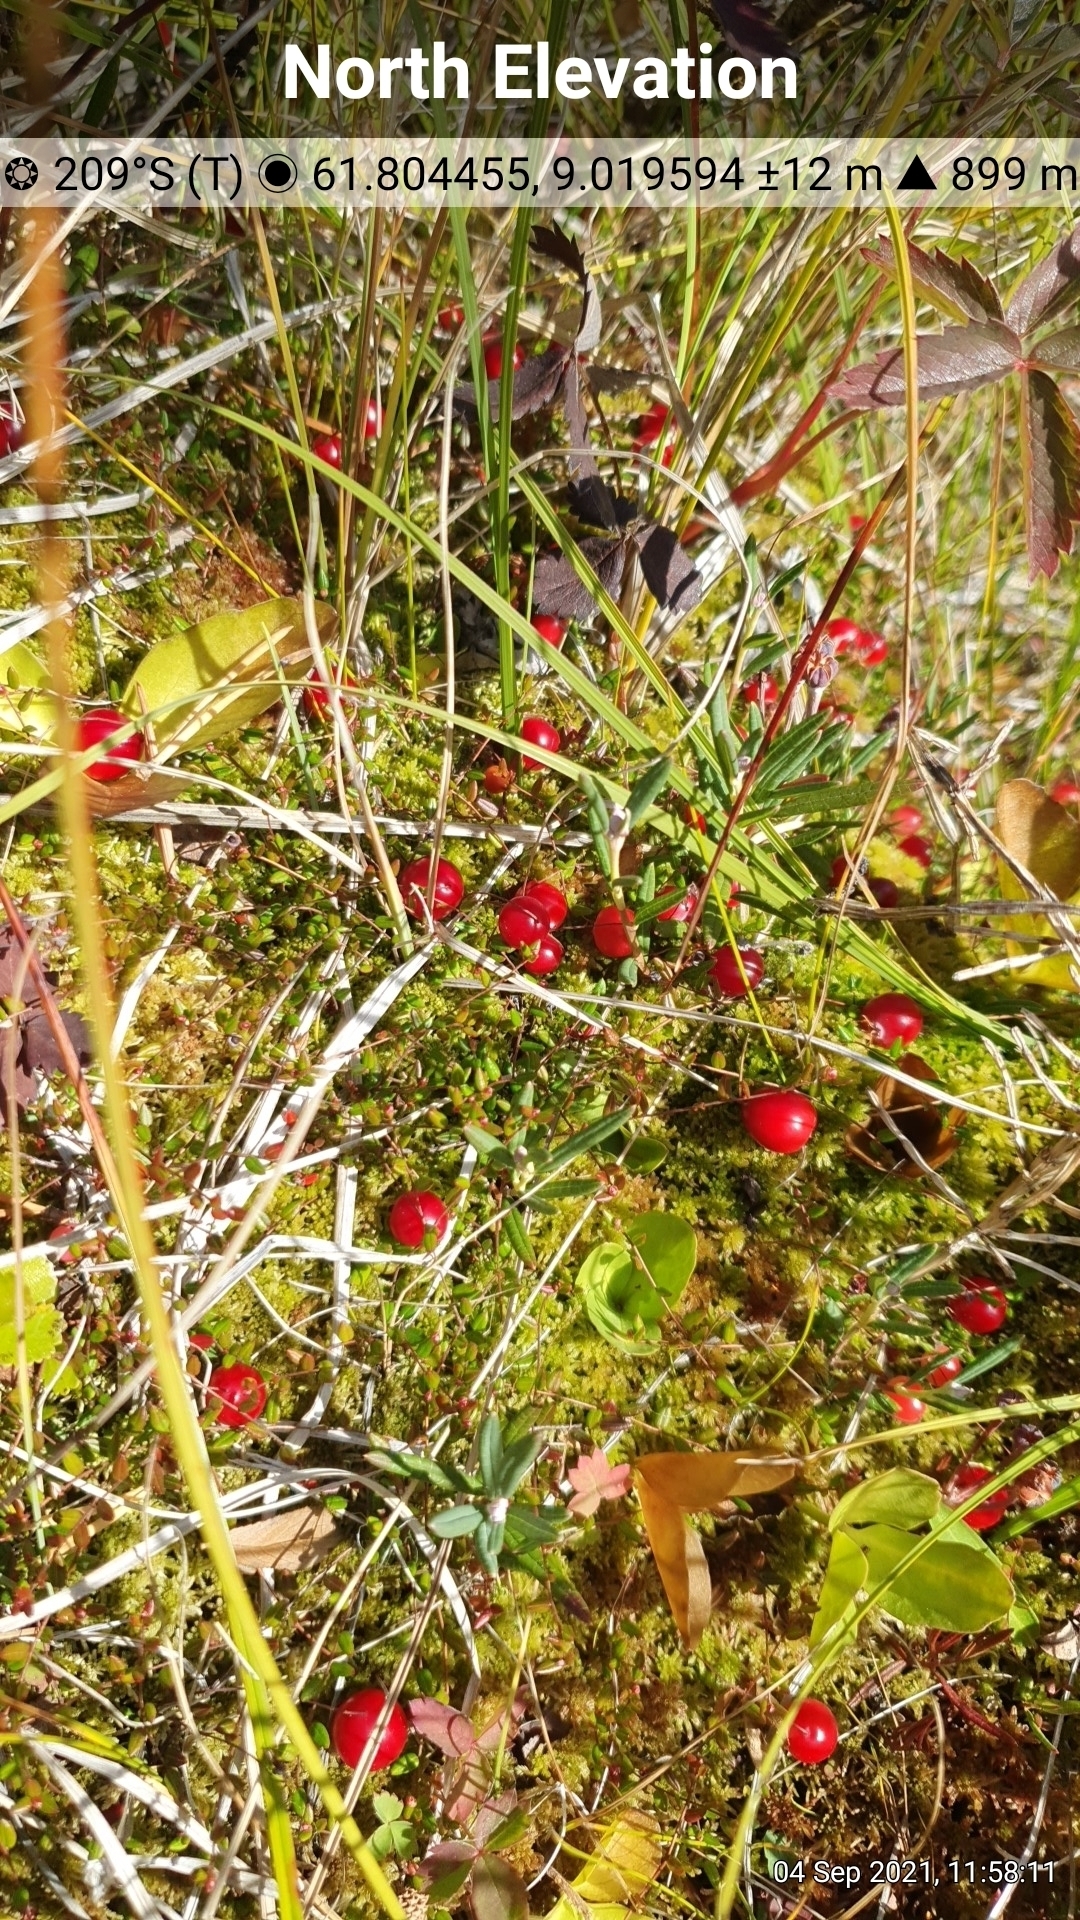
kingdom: Plantae
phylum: Tracheophyta
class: Magnoliopsida
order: Ericales
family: Ericaceae
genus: Vaccinium
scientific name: Vaccinium microcarpum
